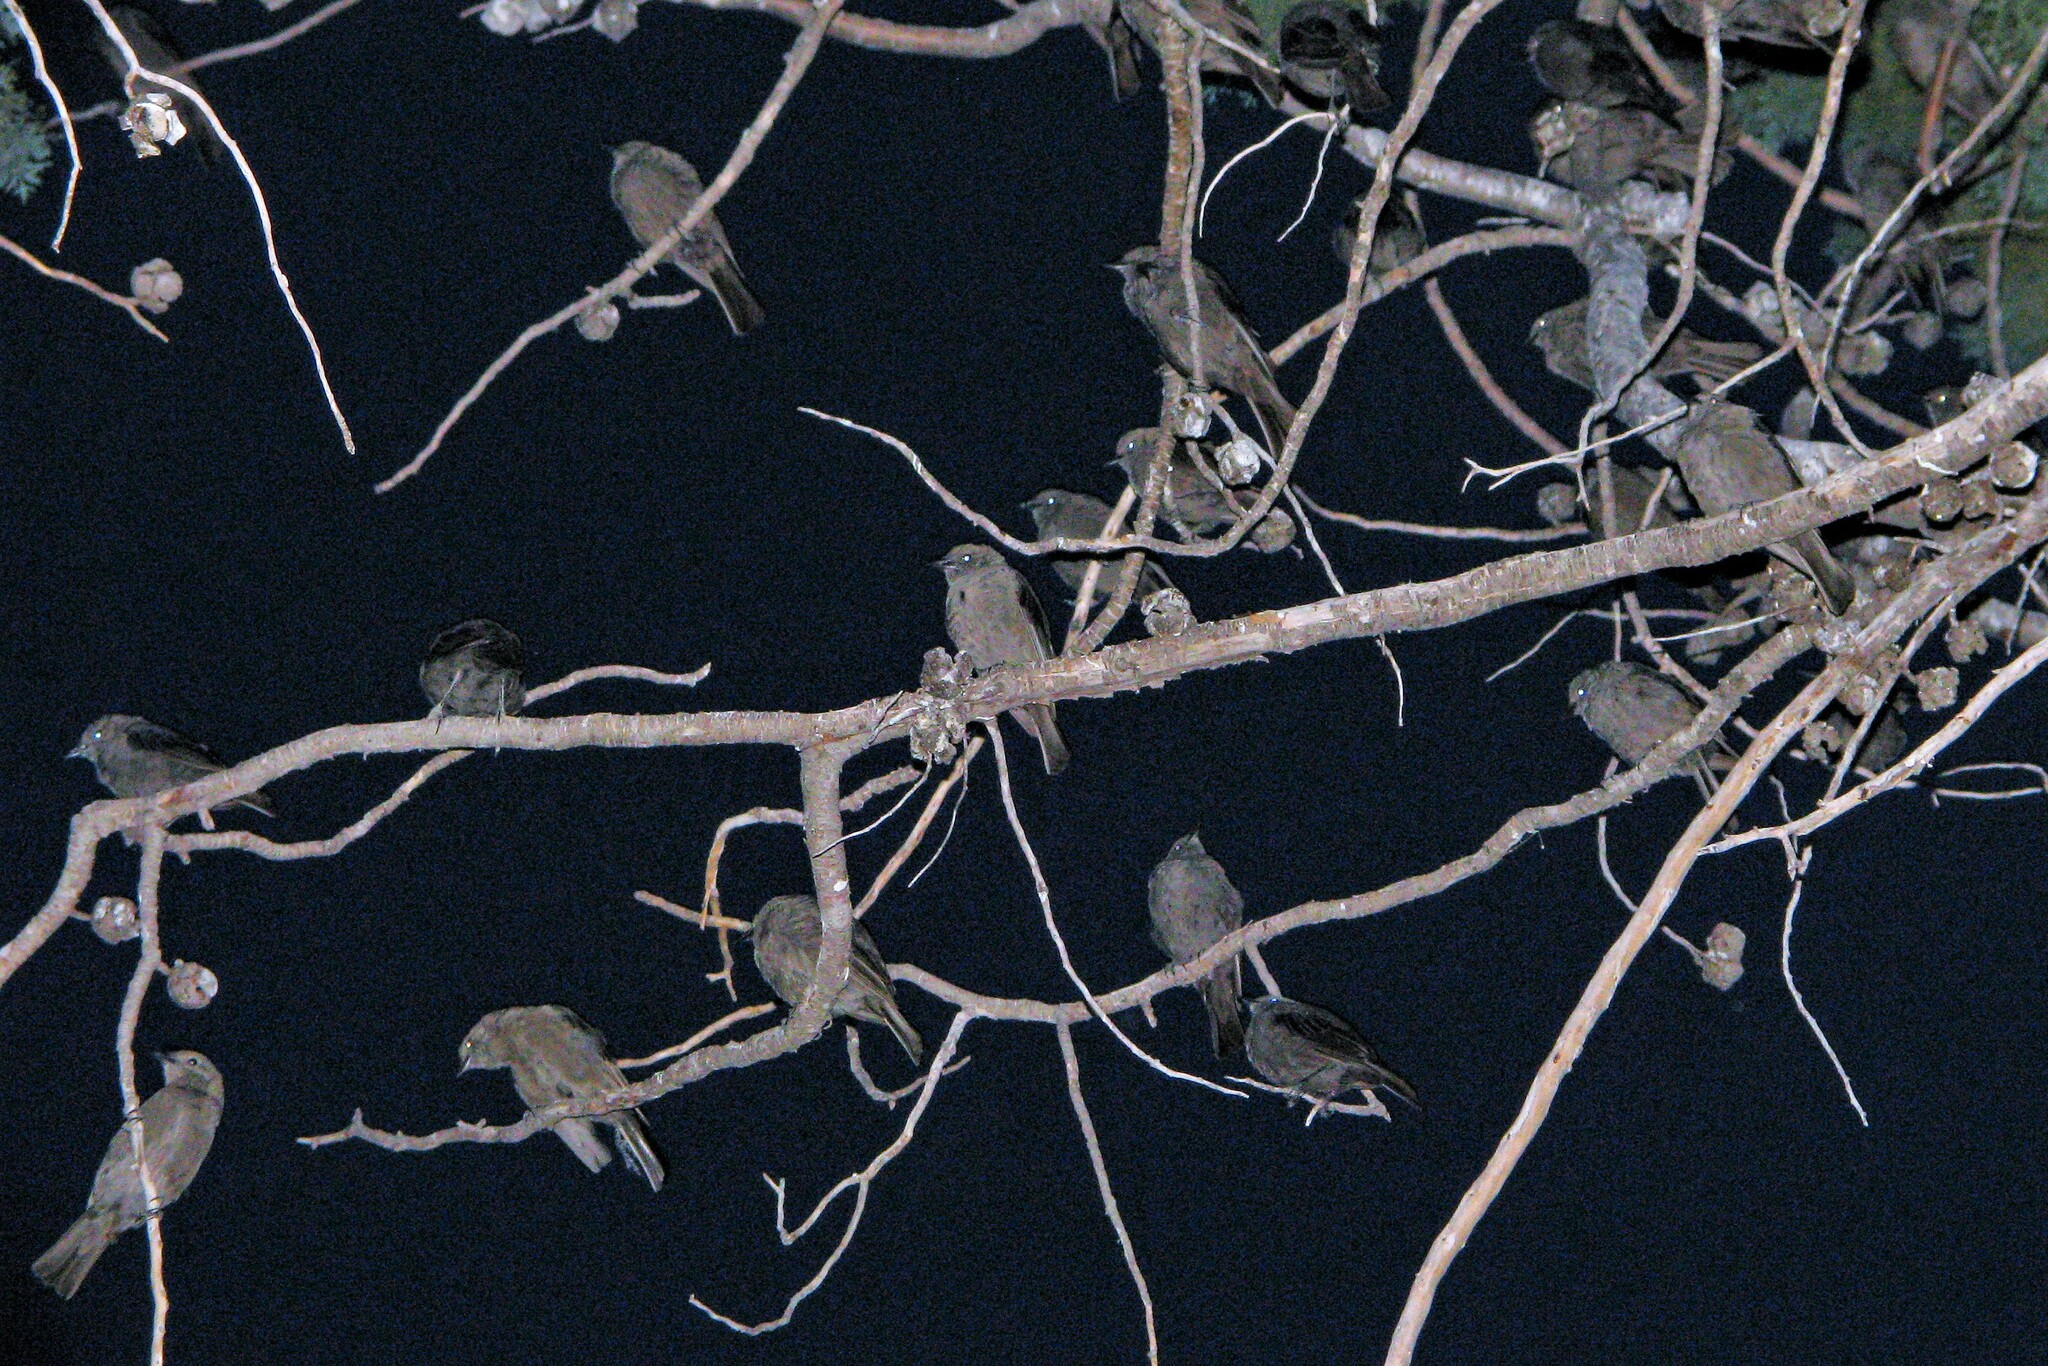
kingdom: Animalia
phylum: Chordata
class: Aves
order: Passeriformes
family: Icteridae
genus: Molothrus
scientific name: Molothrus bonariensis
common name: Shiny cowbird
